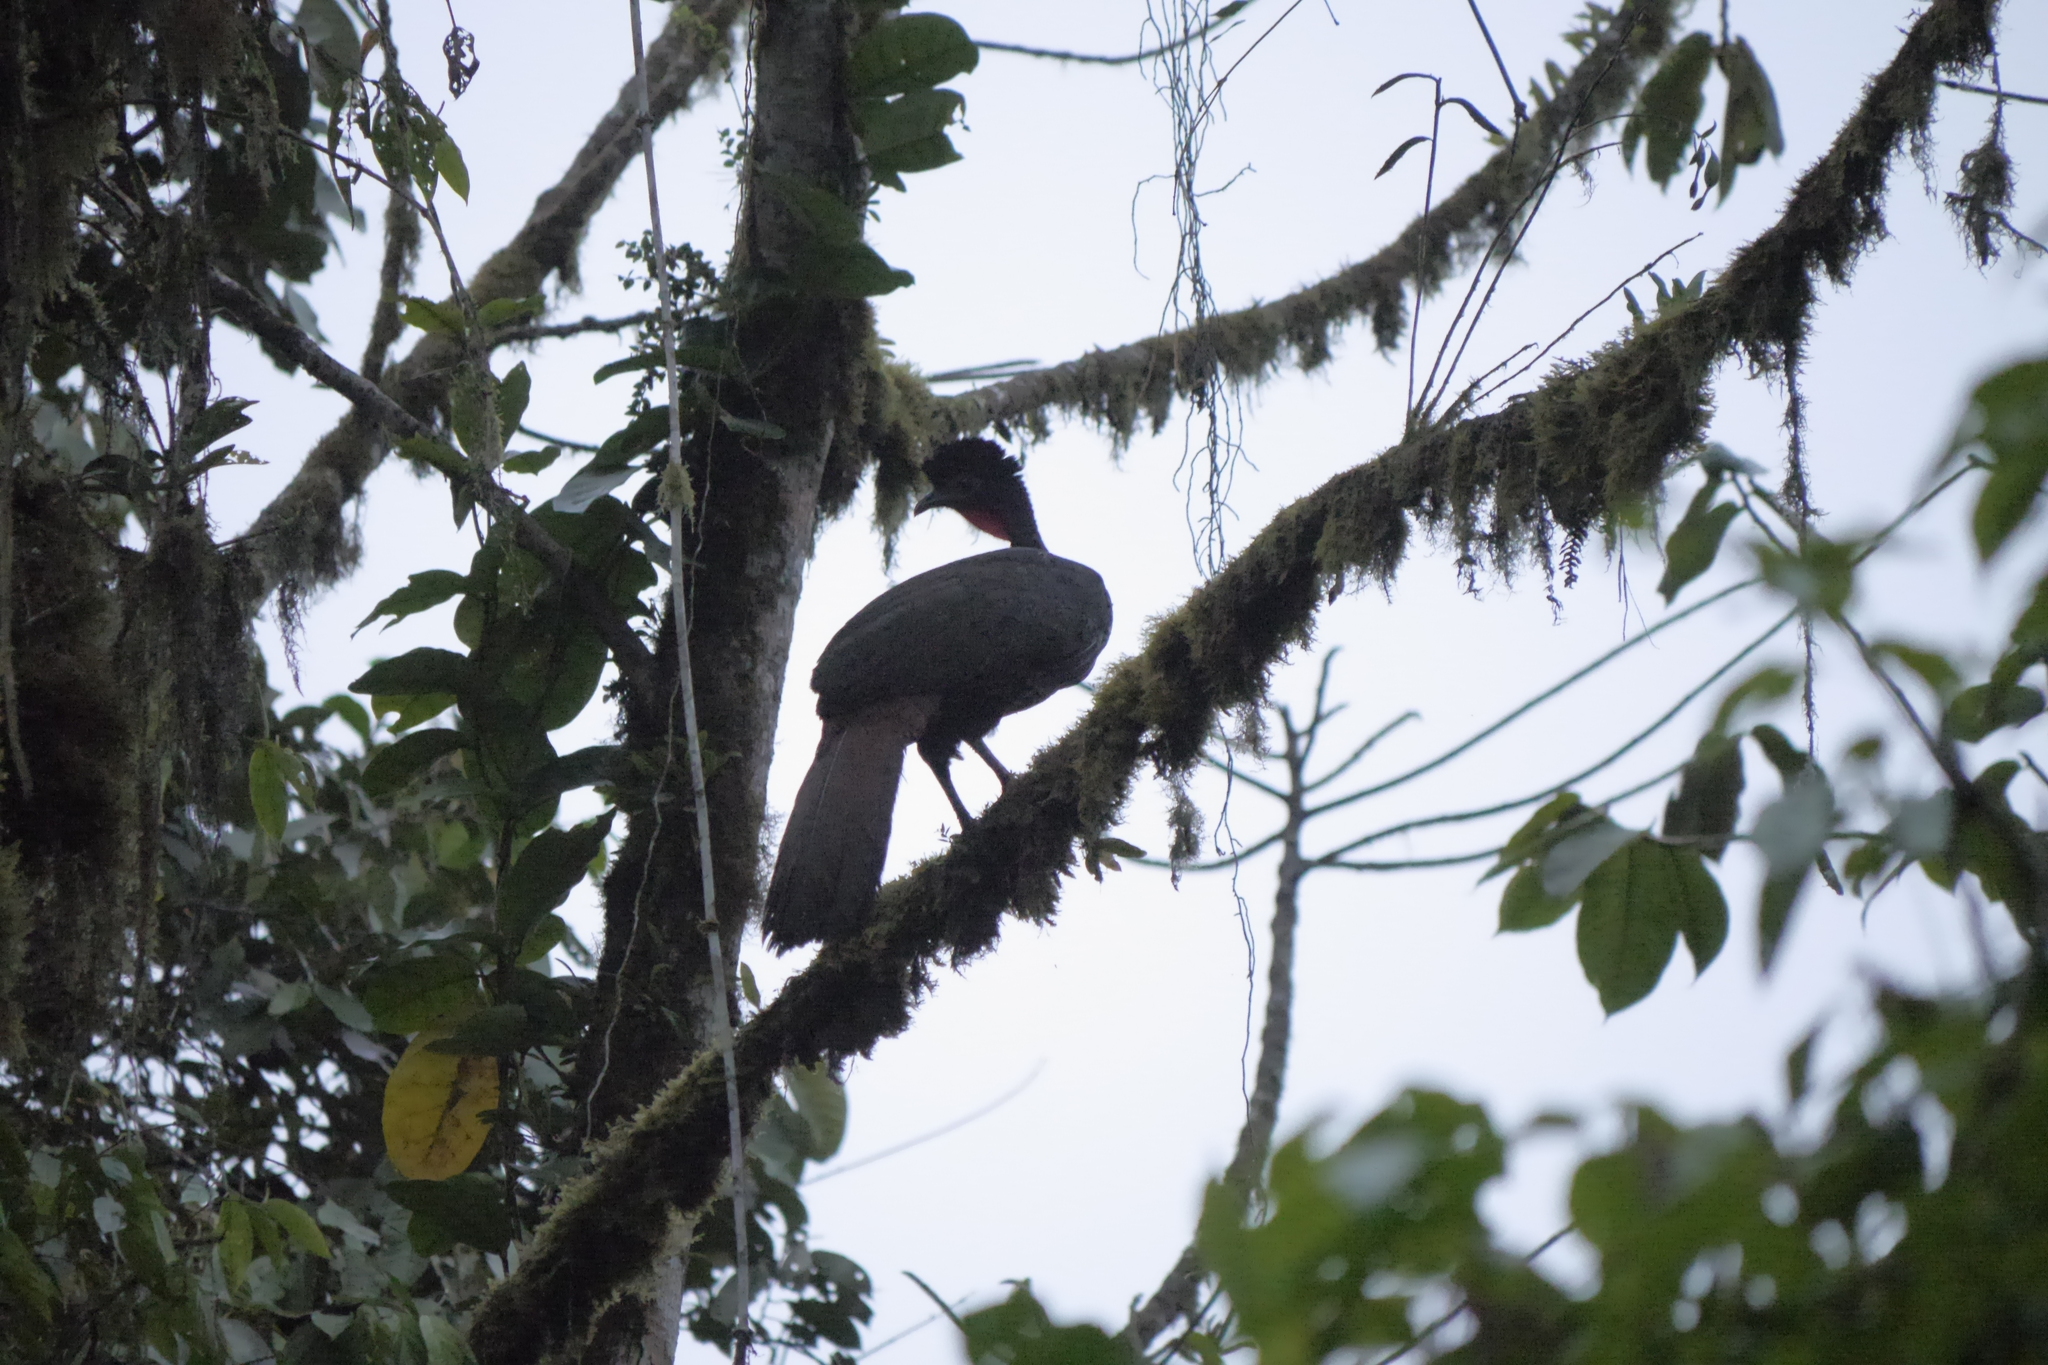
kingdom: Animalia
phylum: Chordata
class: Aves
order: Galliformes
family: Cracidae
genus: Penelope
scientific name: Penelope purpurascens
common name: Crested guan
